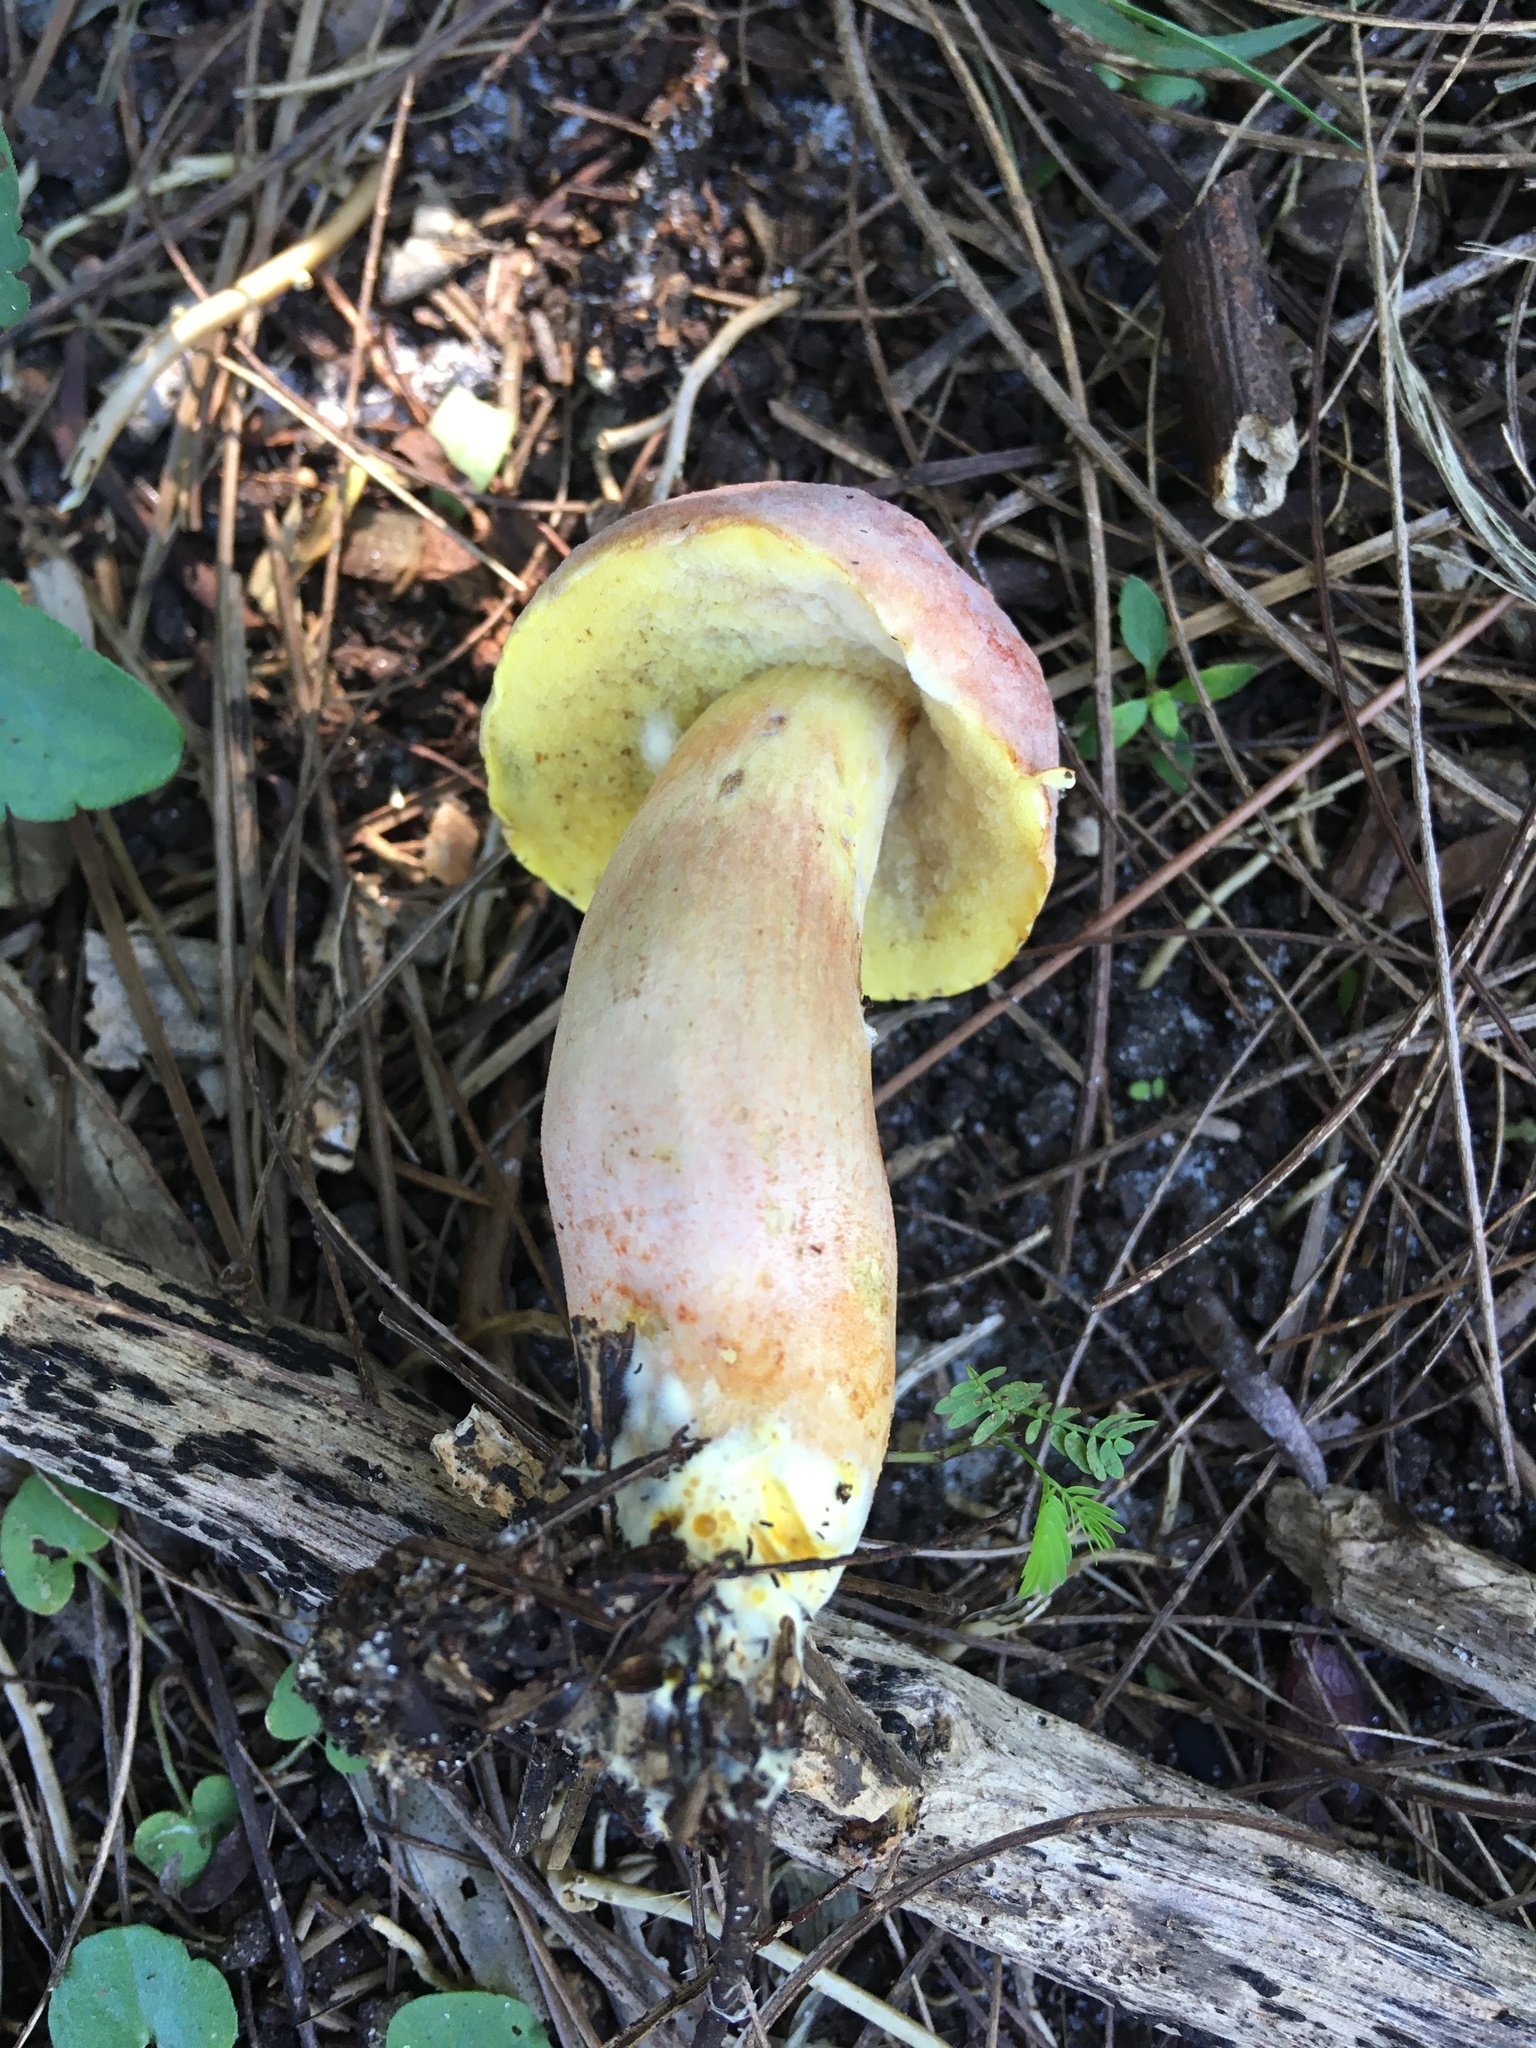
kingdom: Fungi
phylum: Basidiomycota
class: Agaricomycetes
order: Boletales
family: Boletaceae
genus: Xerocomellus
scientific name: Xerocomellus bolinii
